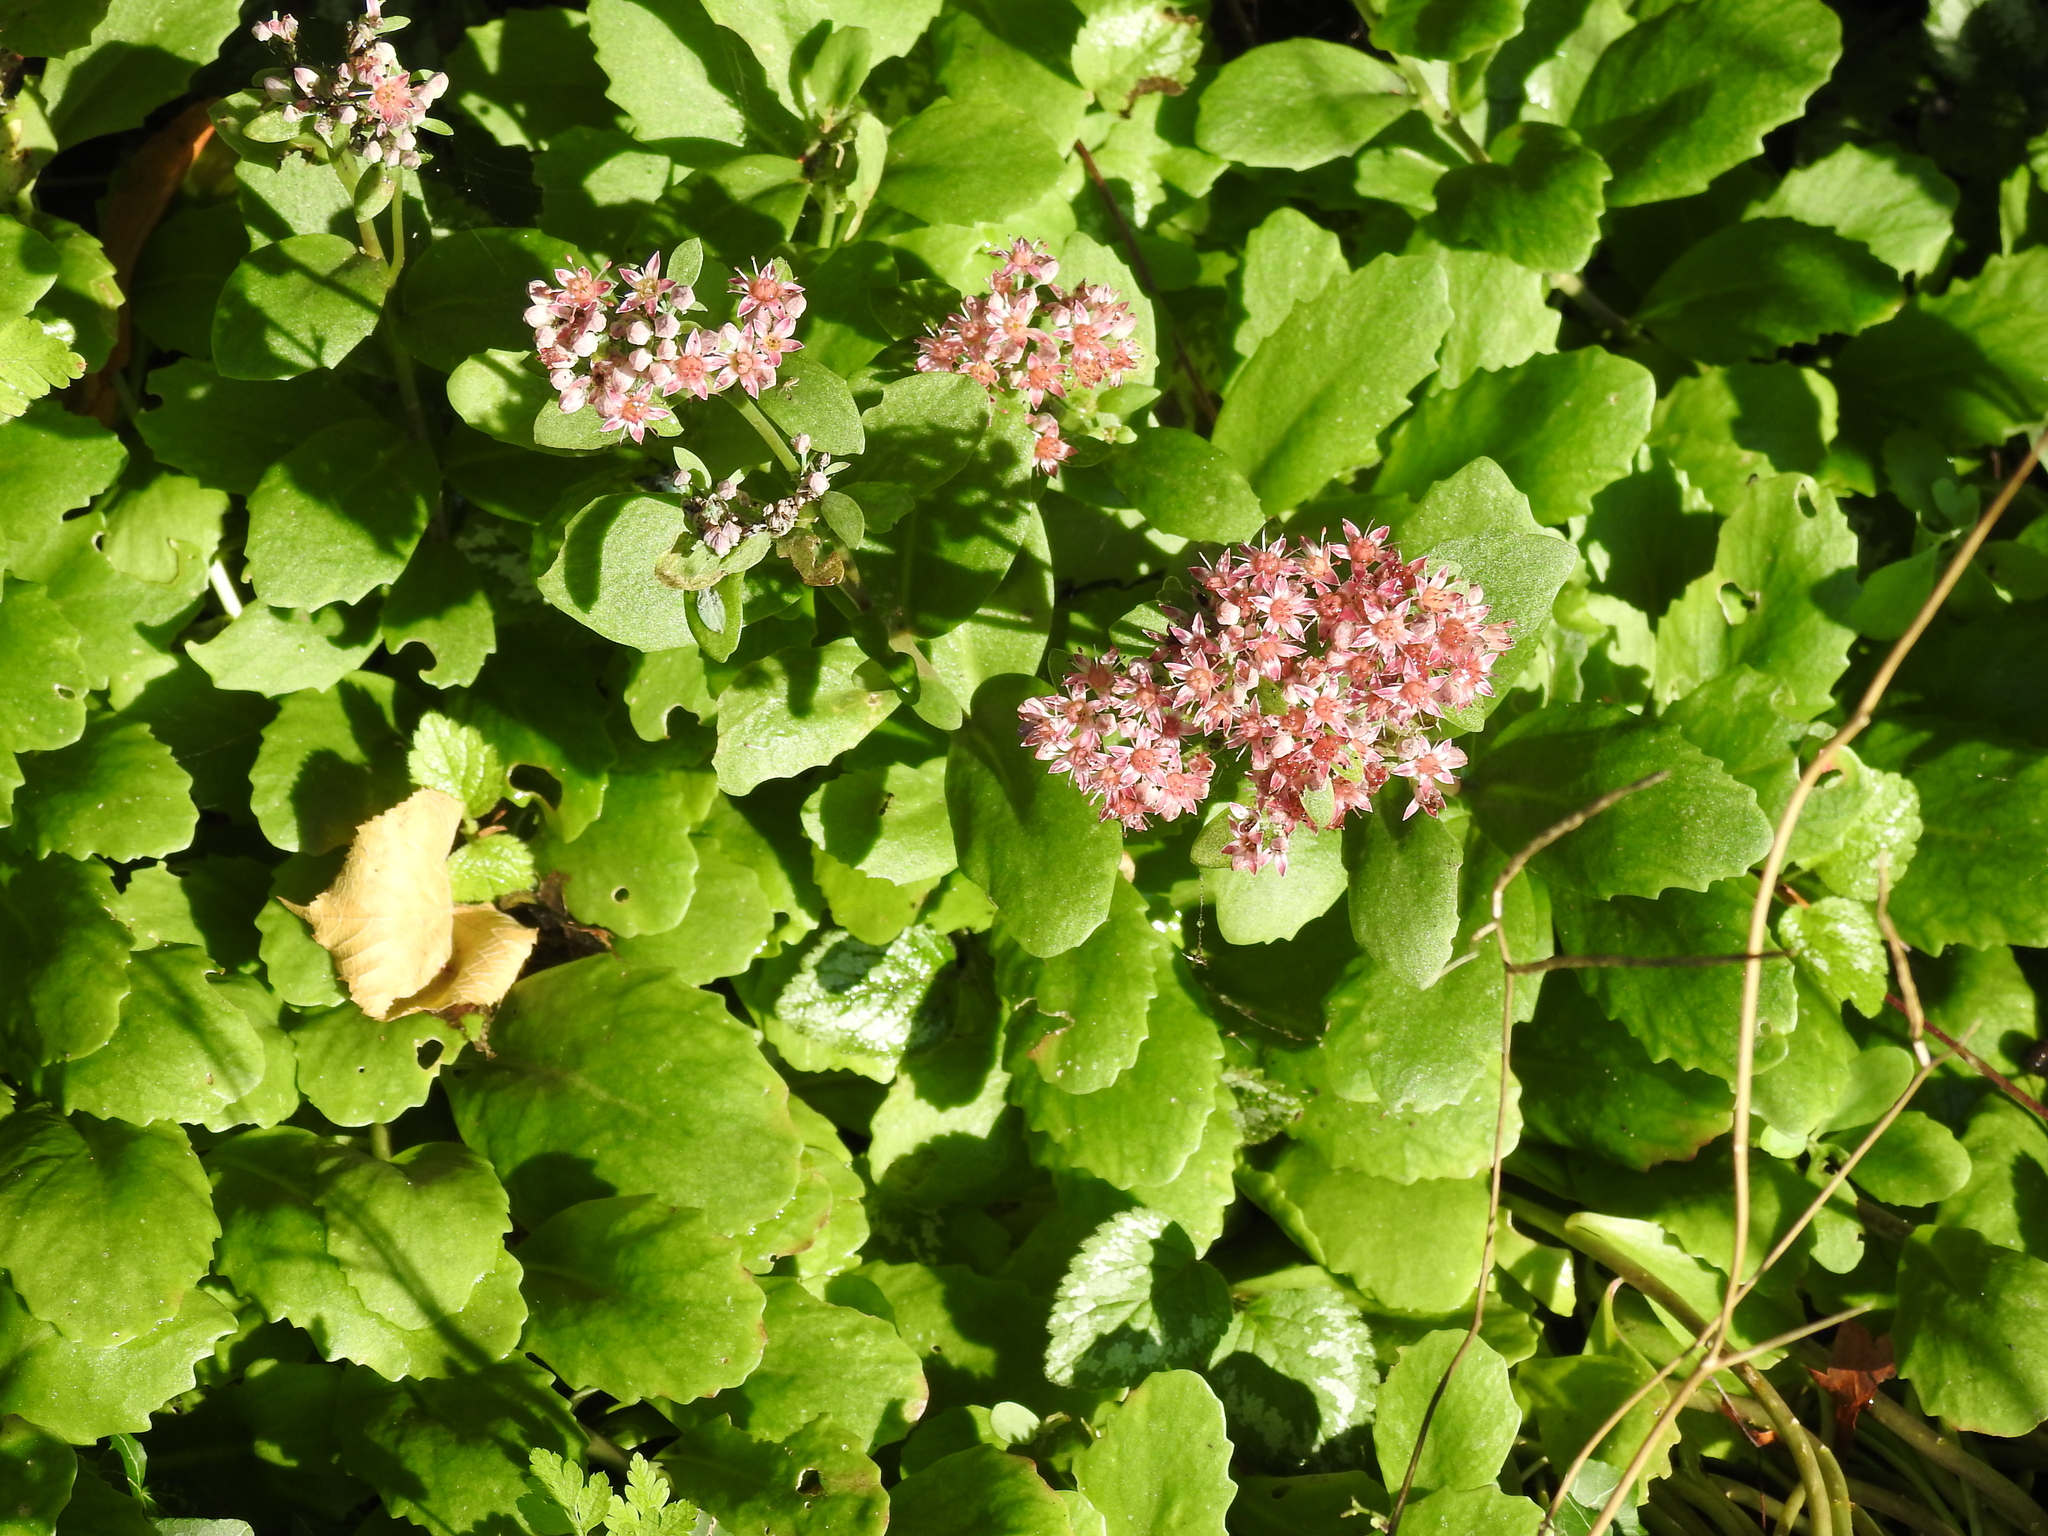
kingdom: Plantae
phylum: Tracheophyta
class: Magnoliopsida
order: Saxifragales
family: Crassulaceae
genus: Hylotelephium
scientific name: Hylotelephium telephium
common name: Live-forever
